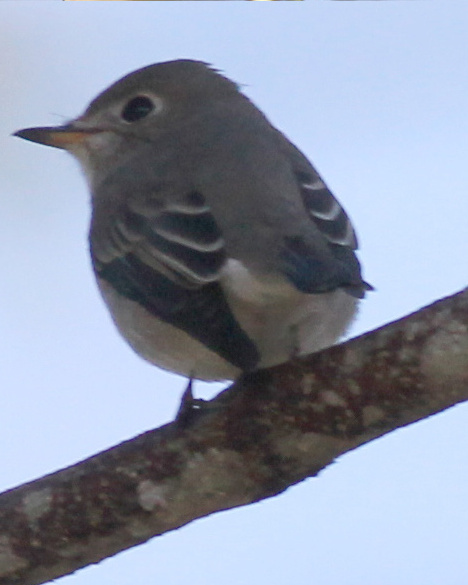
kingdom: Animalia
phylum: Chordata
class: Aves
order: Passeriformes
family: Muscicapidae
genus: Muscicapa
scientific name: Muscicapa latirostris
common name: Asian brown flycatcher
